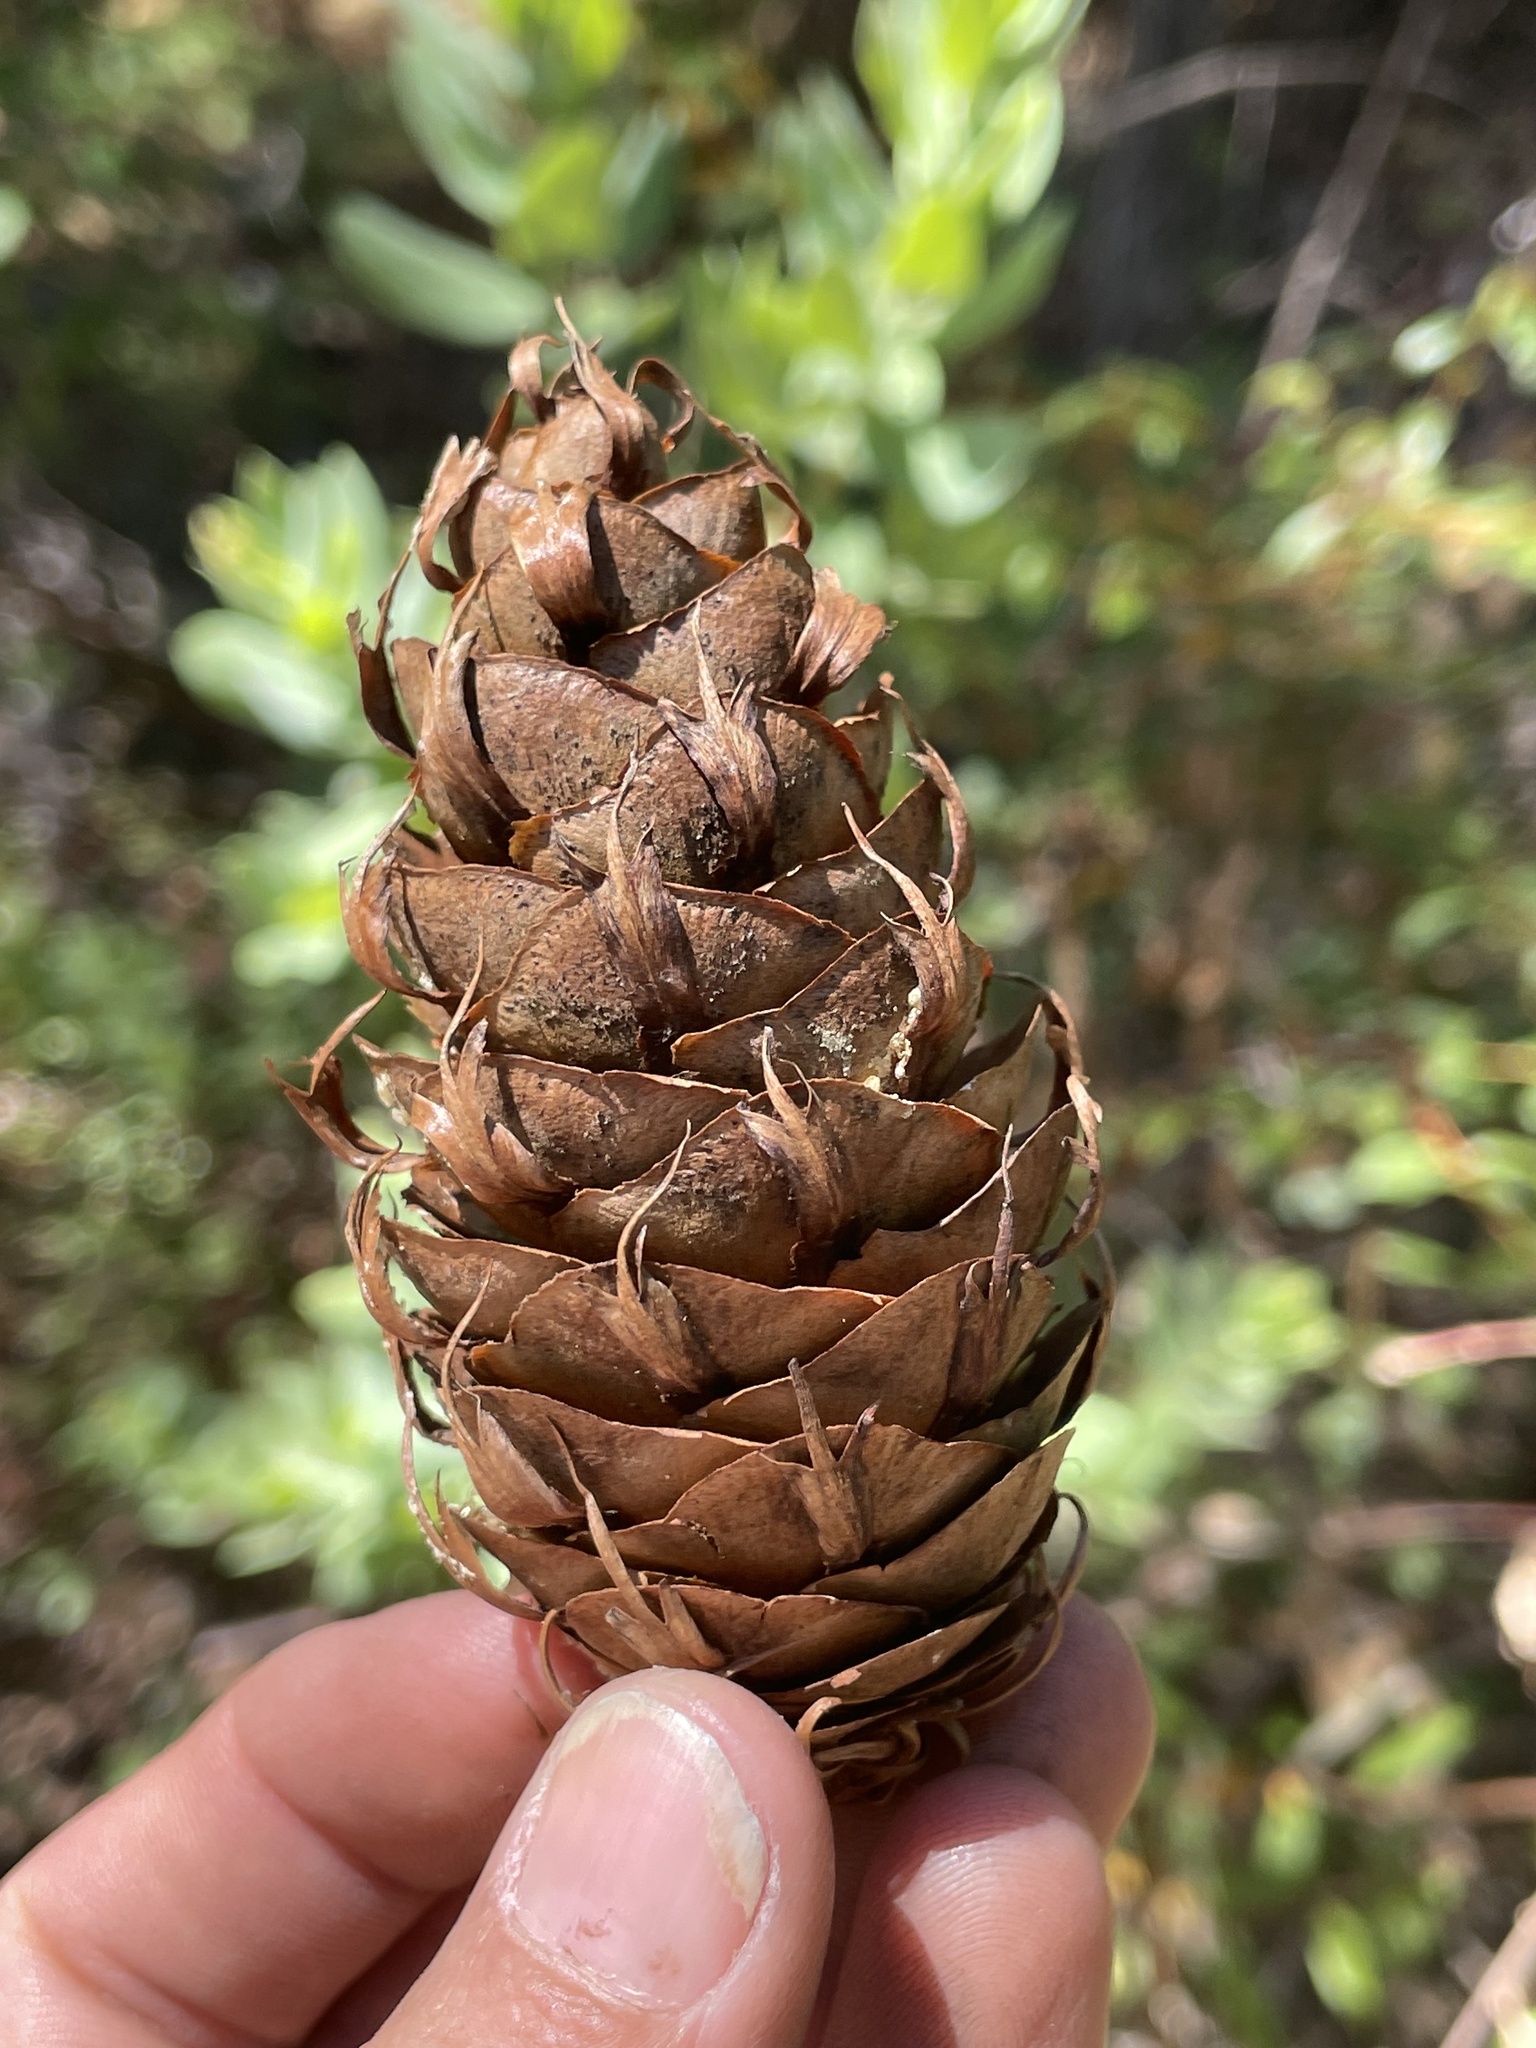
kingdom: Plantae
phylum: Tracheophyta
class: Pinopsida
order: Pinales
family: Pinaceae
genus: Pseudotsuga
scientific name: Pseudotsuga menziesii
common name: Douglas fir
